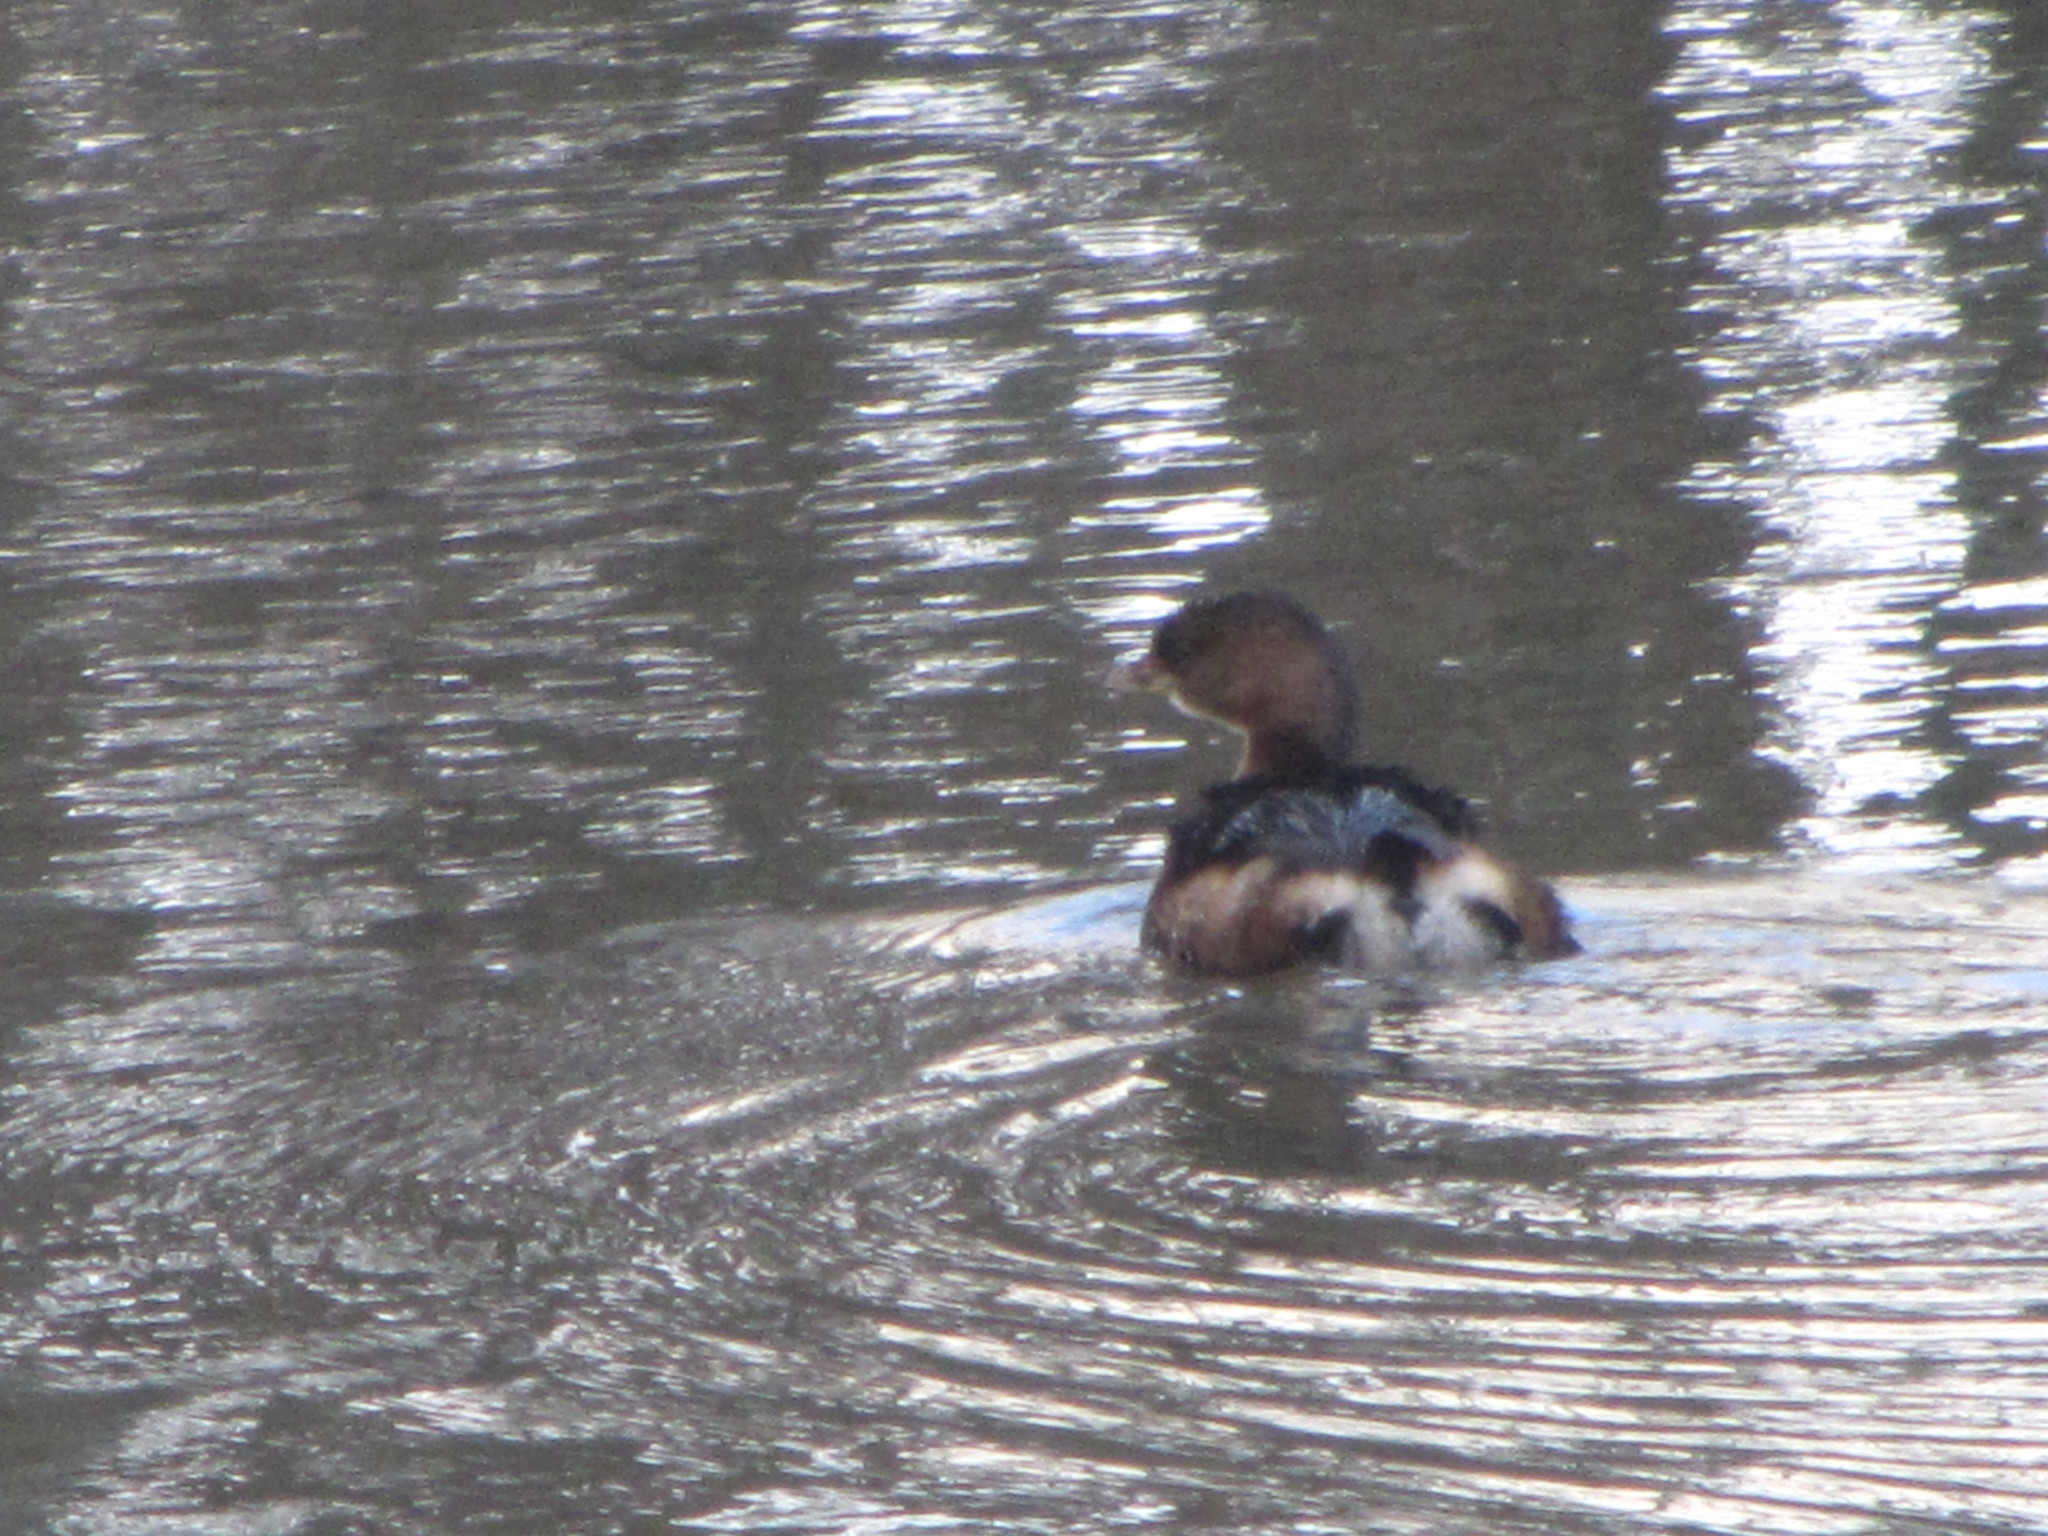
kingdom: Animalia
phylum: Chordata
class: Aves
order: Podicipediformes
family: Podicipedidae
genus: Podilymbus
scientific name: Podilymbus podiceps
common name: Pied-billed grebe
